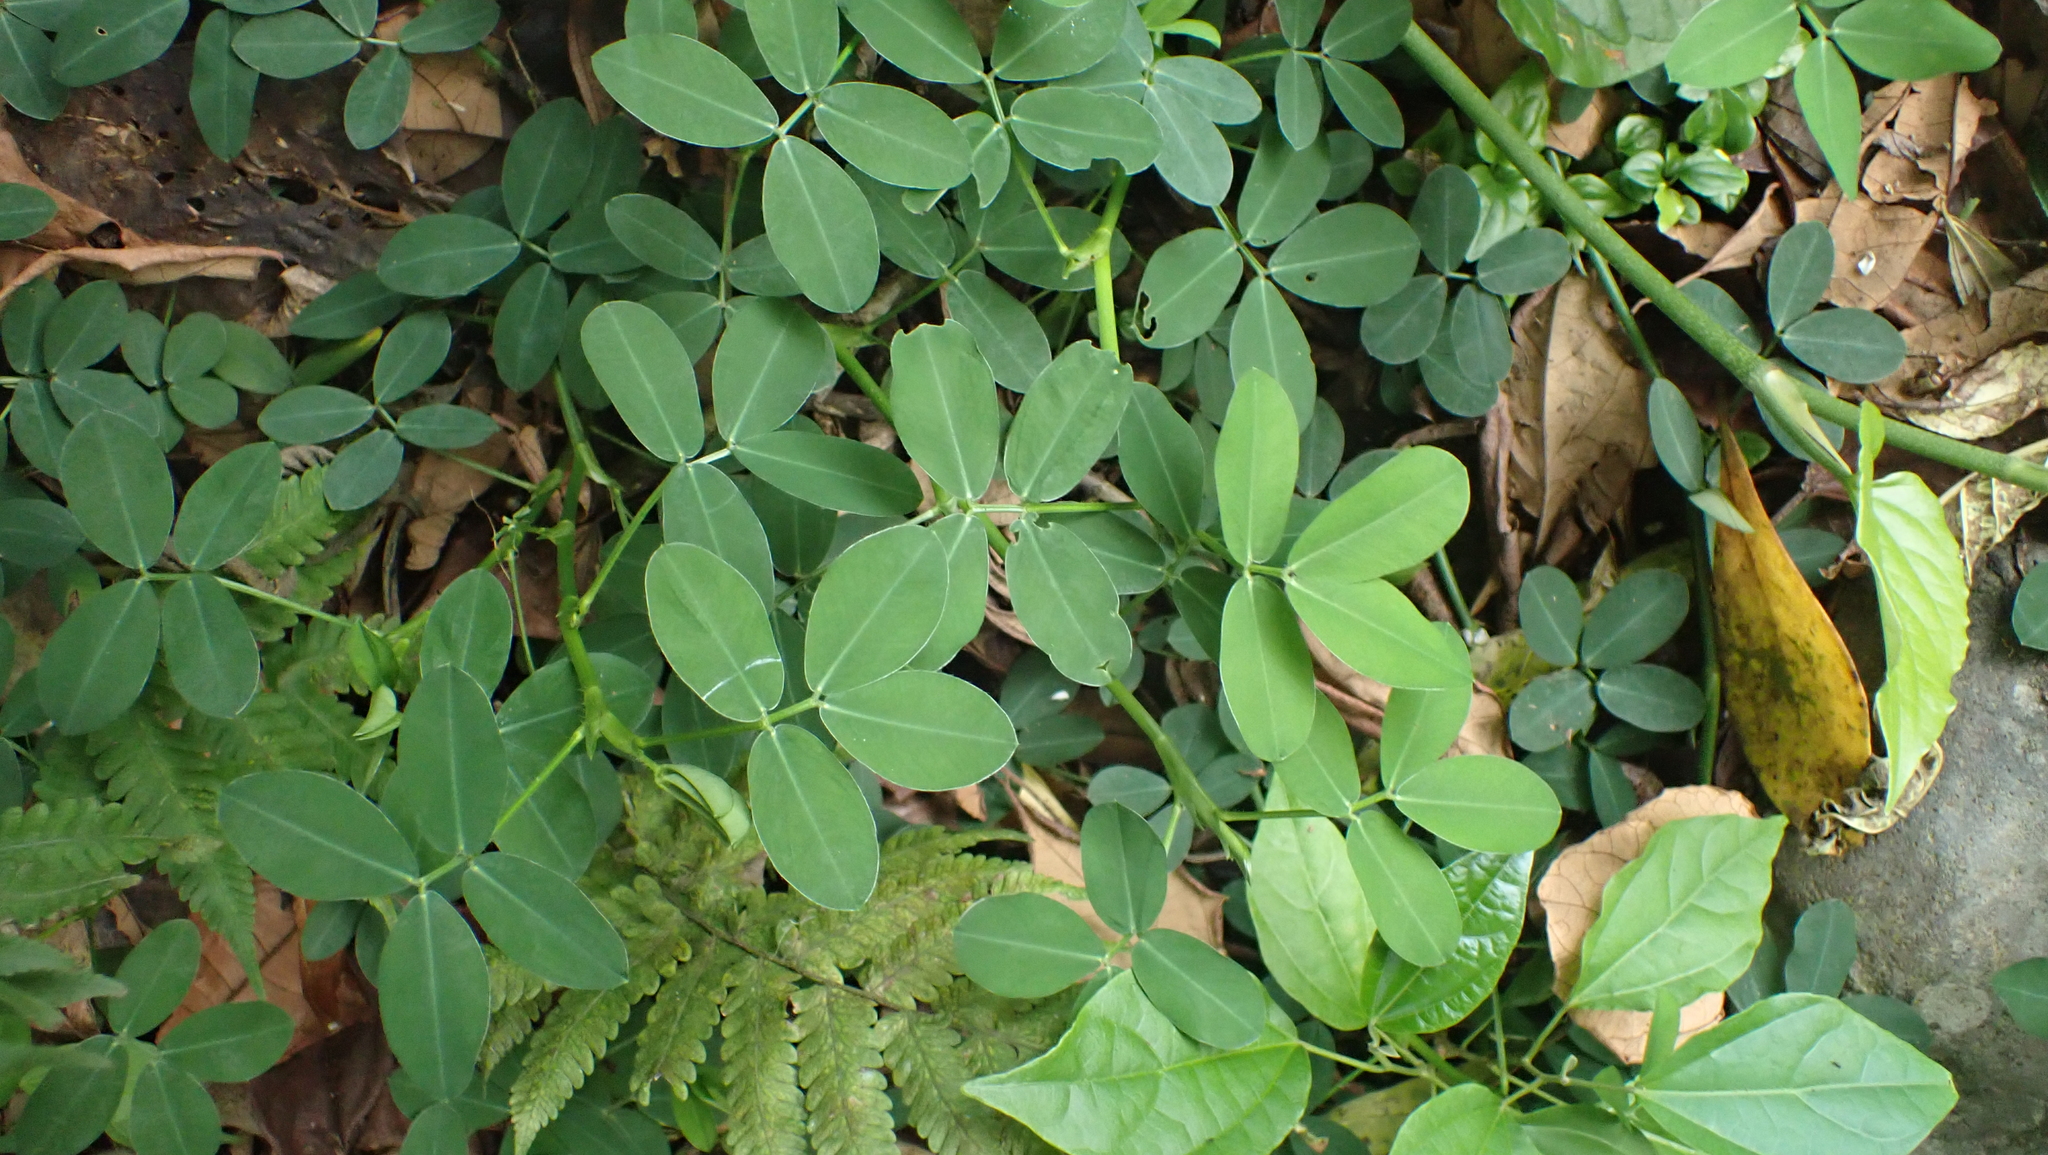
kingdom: Plantae
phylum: Tracheophyta
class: Magnoliopsida
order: Fabales
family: Fabaceae
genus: Arachis
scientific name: Arachis pintoi
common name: Pinto peanut
